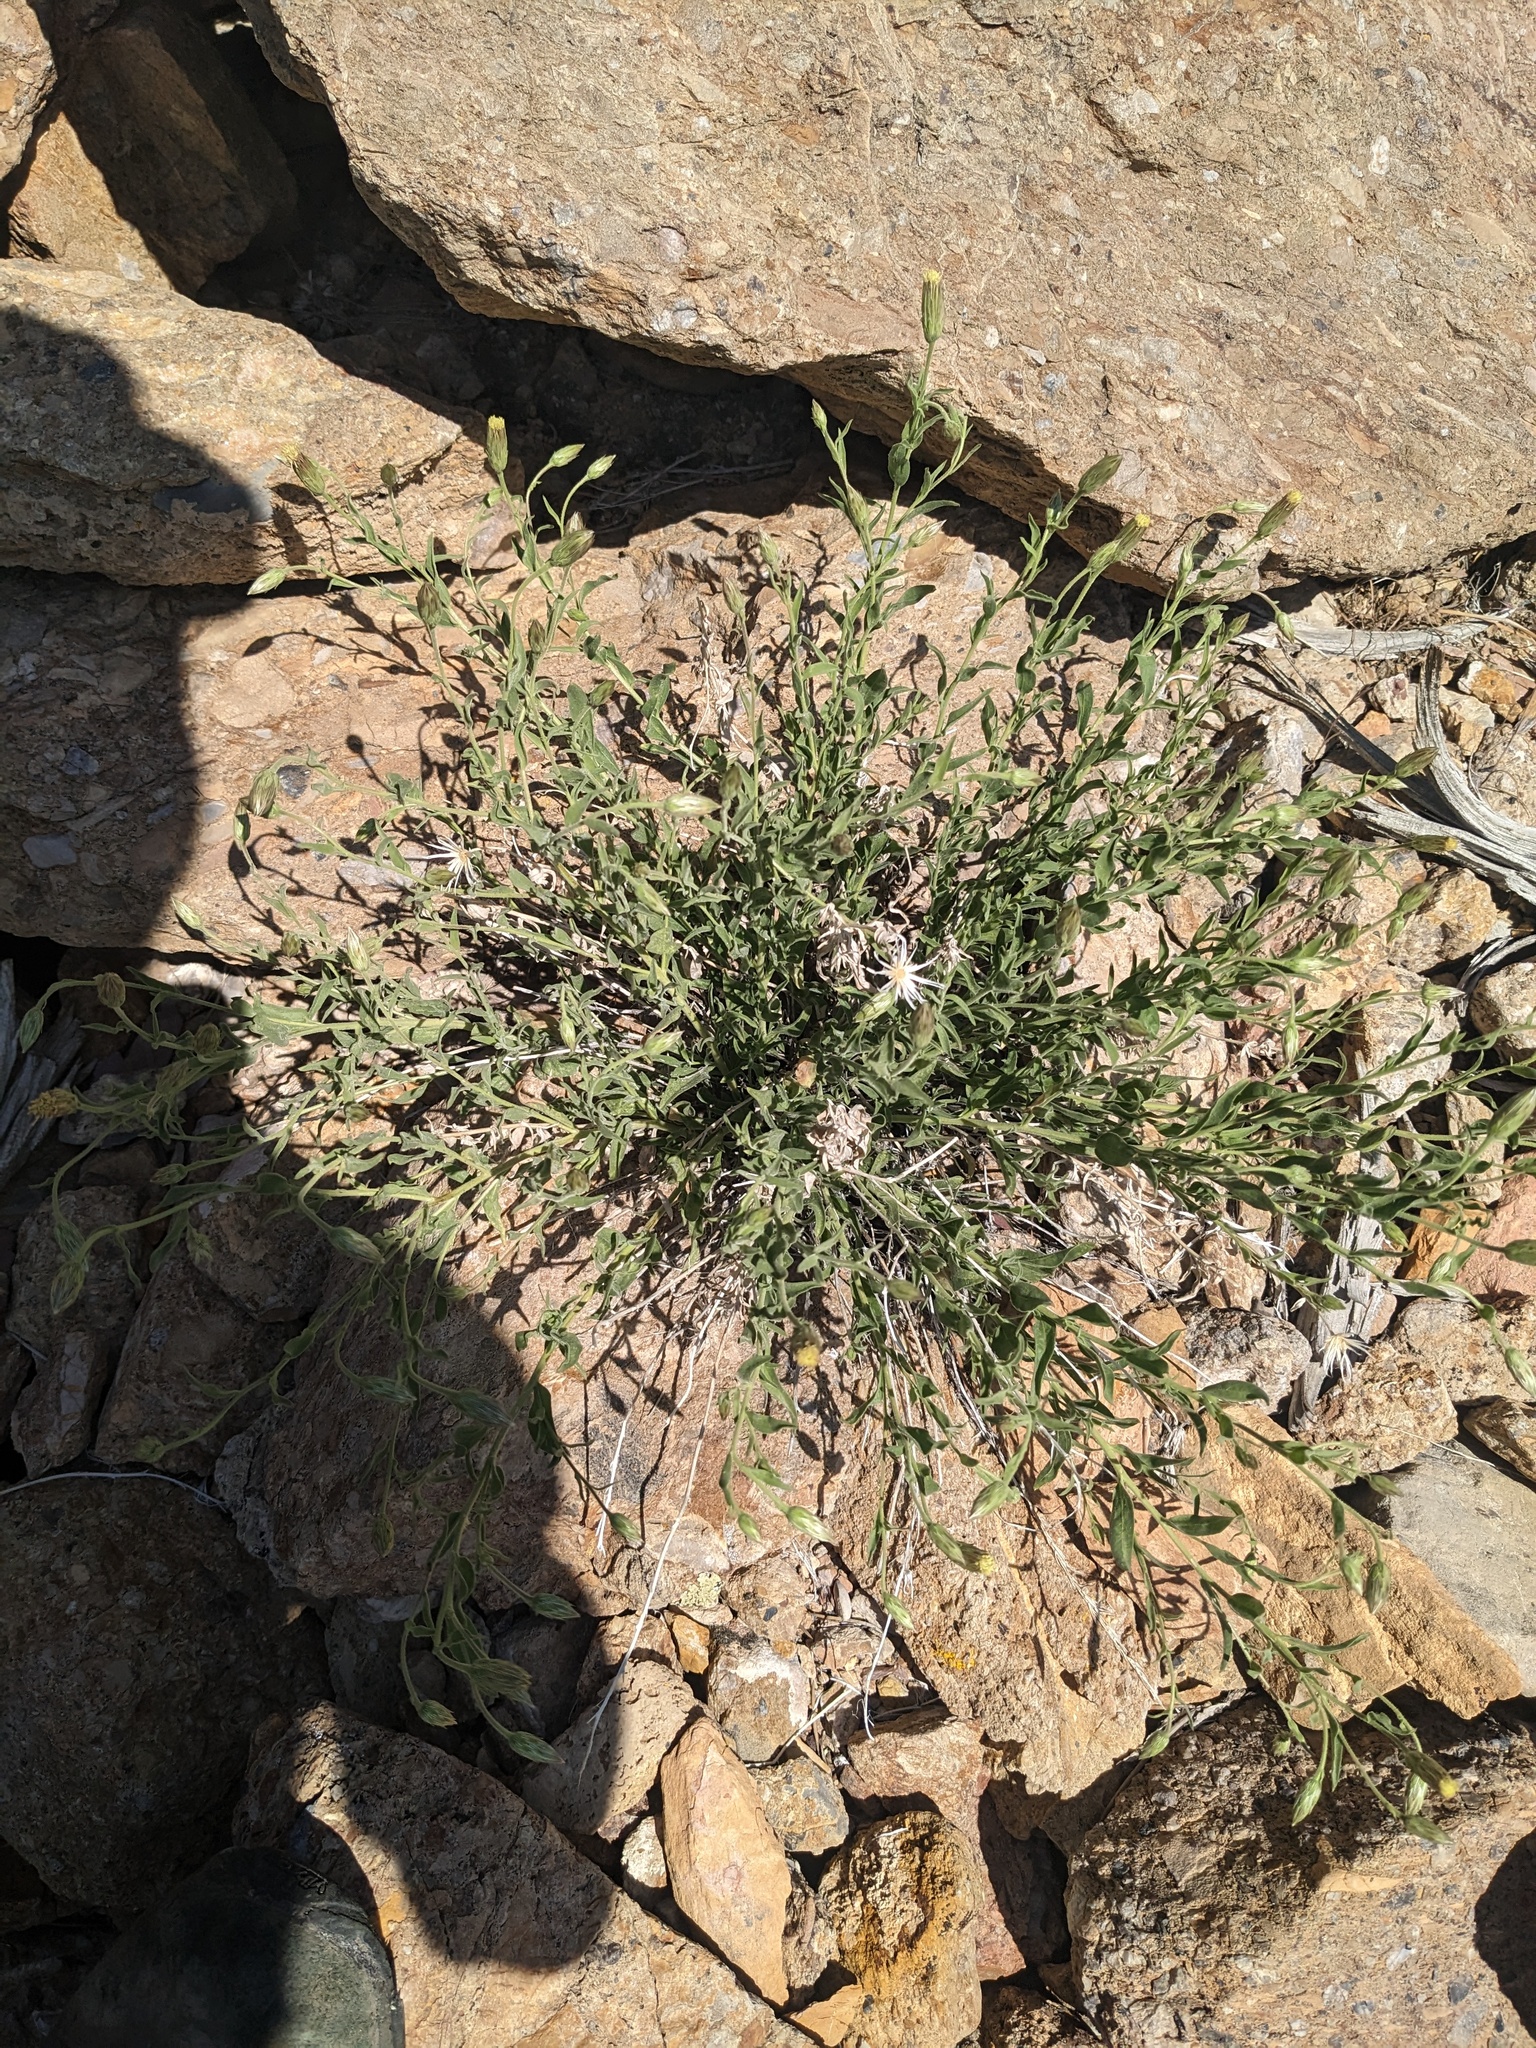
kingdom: Plantae
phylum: Tracheophyta
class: Magnoliopsida
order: Asterales
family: Asteraceae
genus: Brickellia
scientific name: Brickellia oblongifolia
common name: Mojave brickellbush
